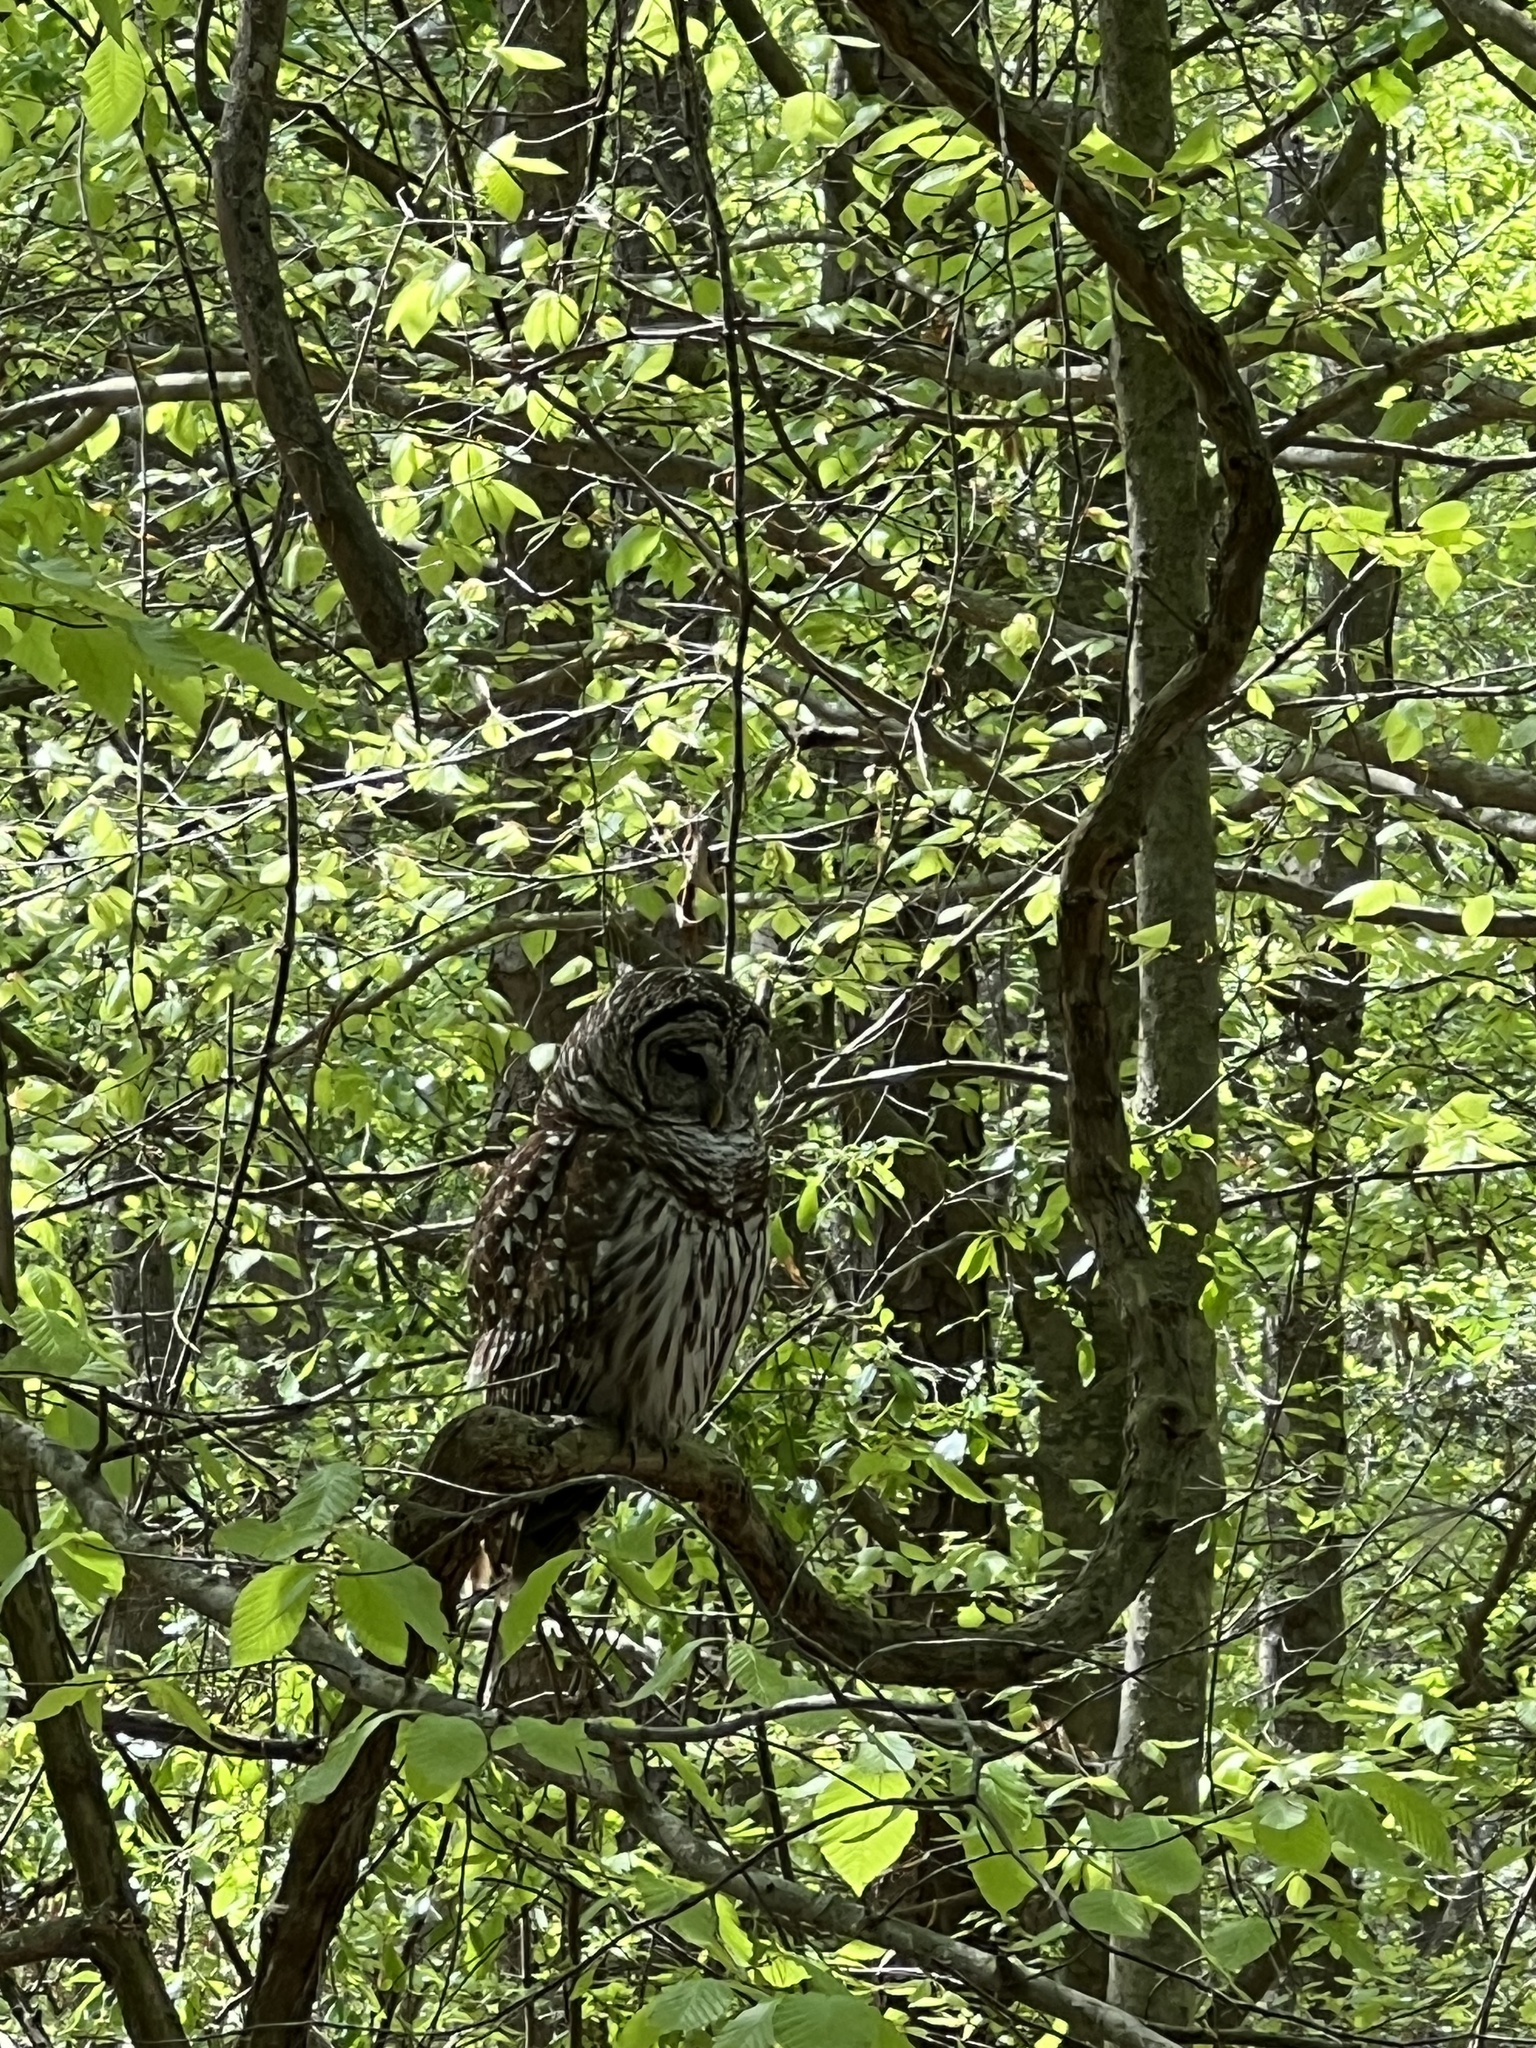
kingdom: Animalia
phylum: Chordata
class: Aves
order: Strigiformes
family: Strigidae
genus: Strix
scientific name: Strix varia
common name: Barred owl
